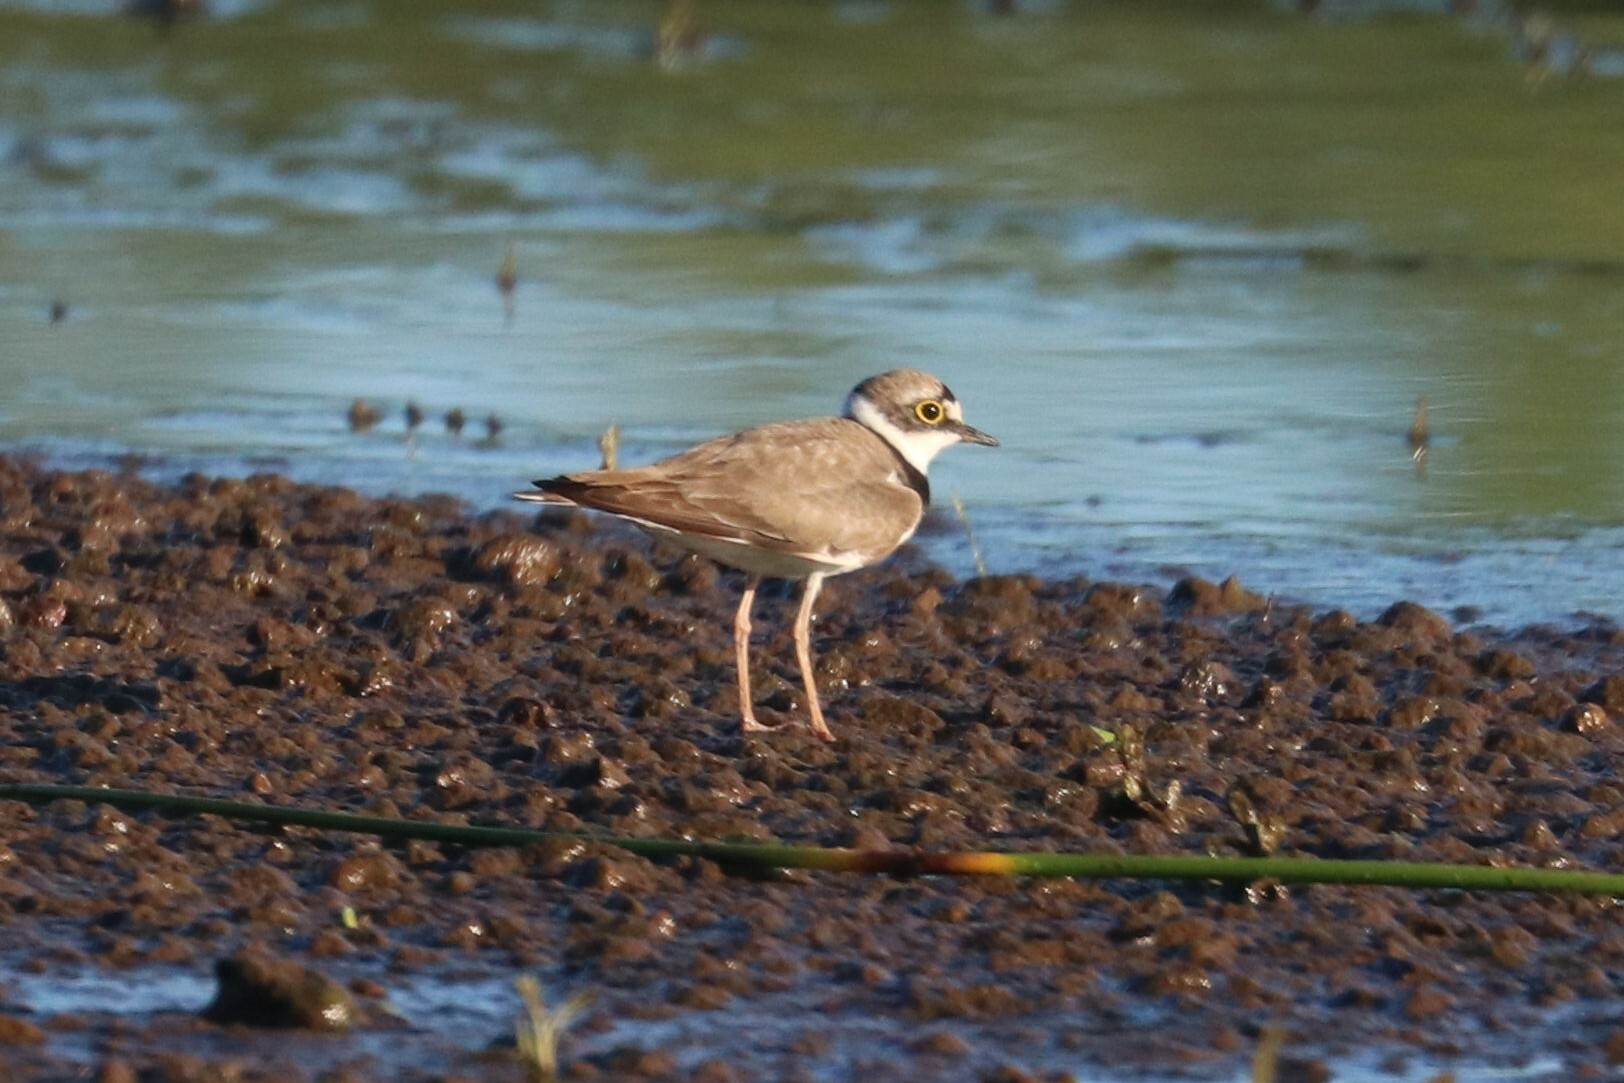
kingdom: Animalia
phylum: Chordata
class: Aves
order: Charadriiformes
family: Charadriidae
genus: Charadrius
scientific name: Charadrius dubius
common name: Little ringed plover
